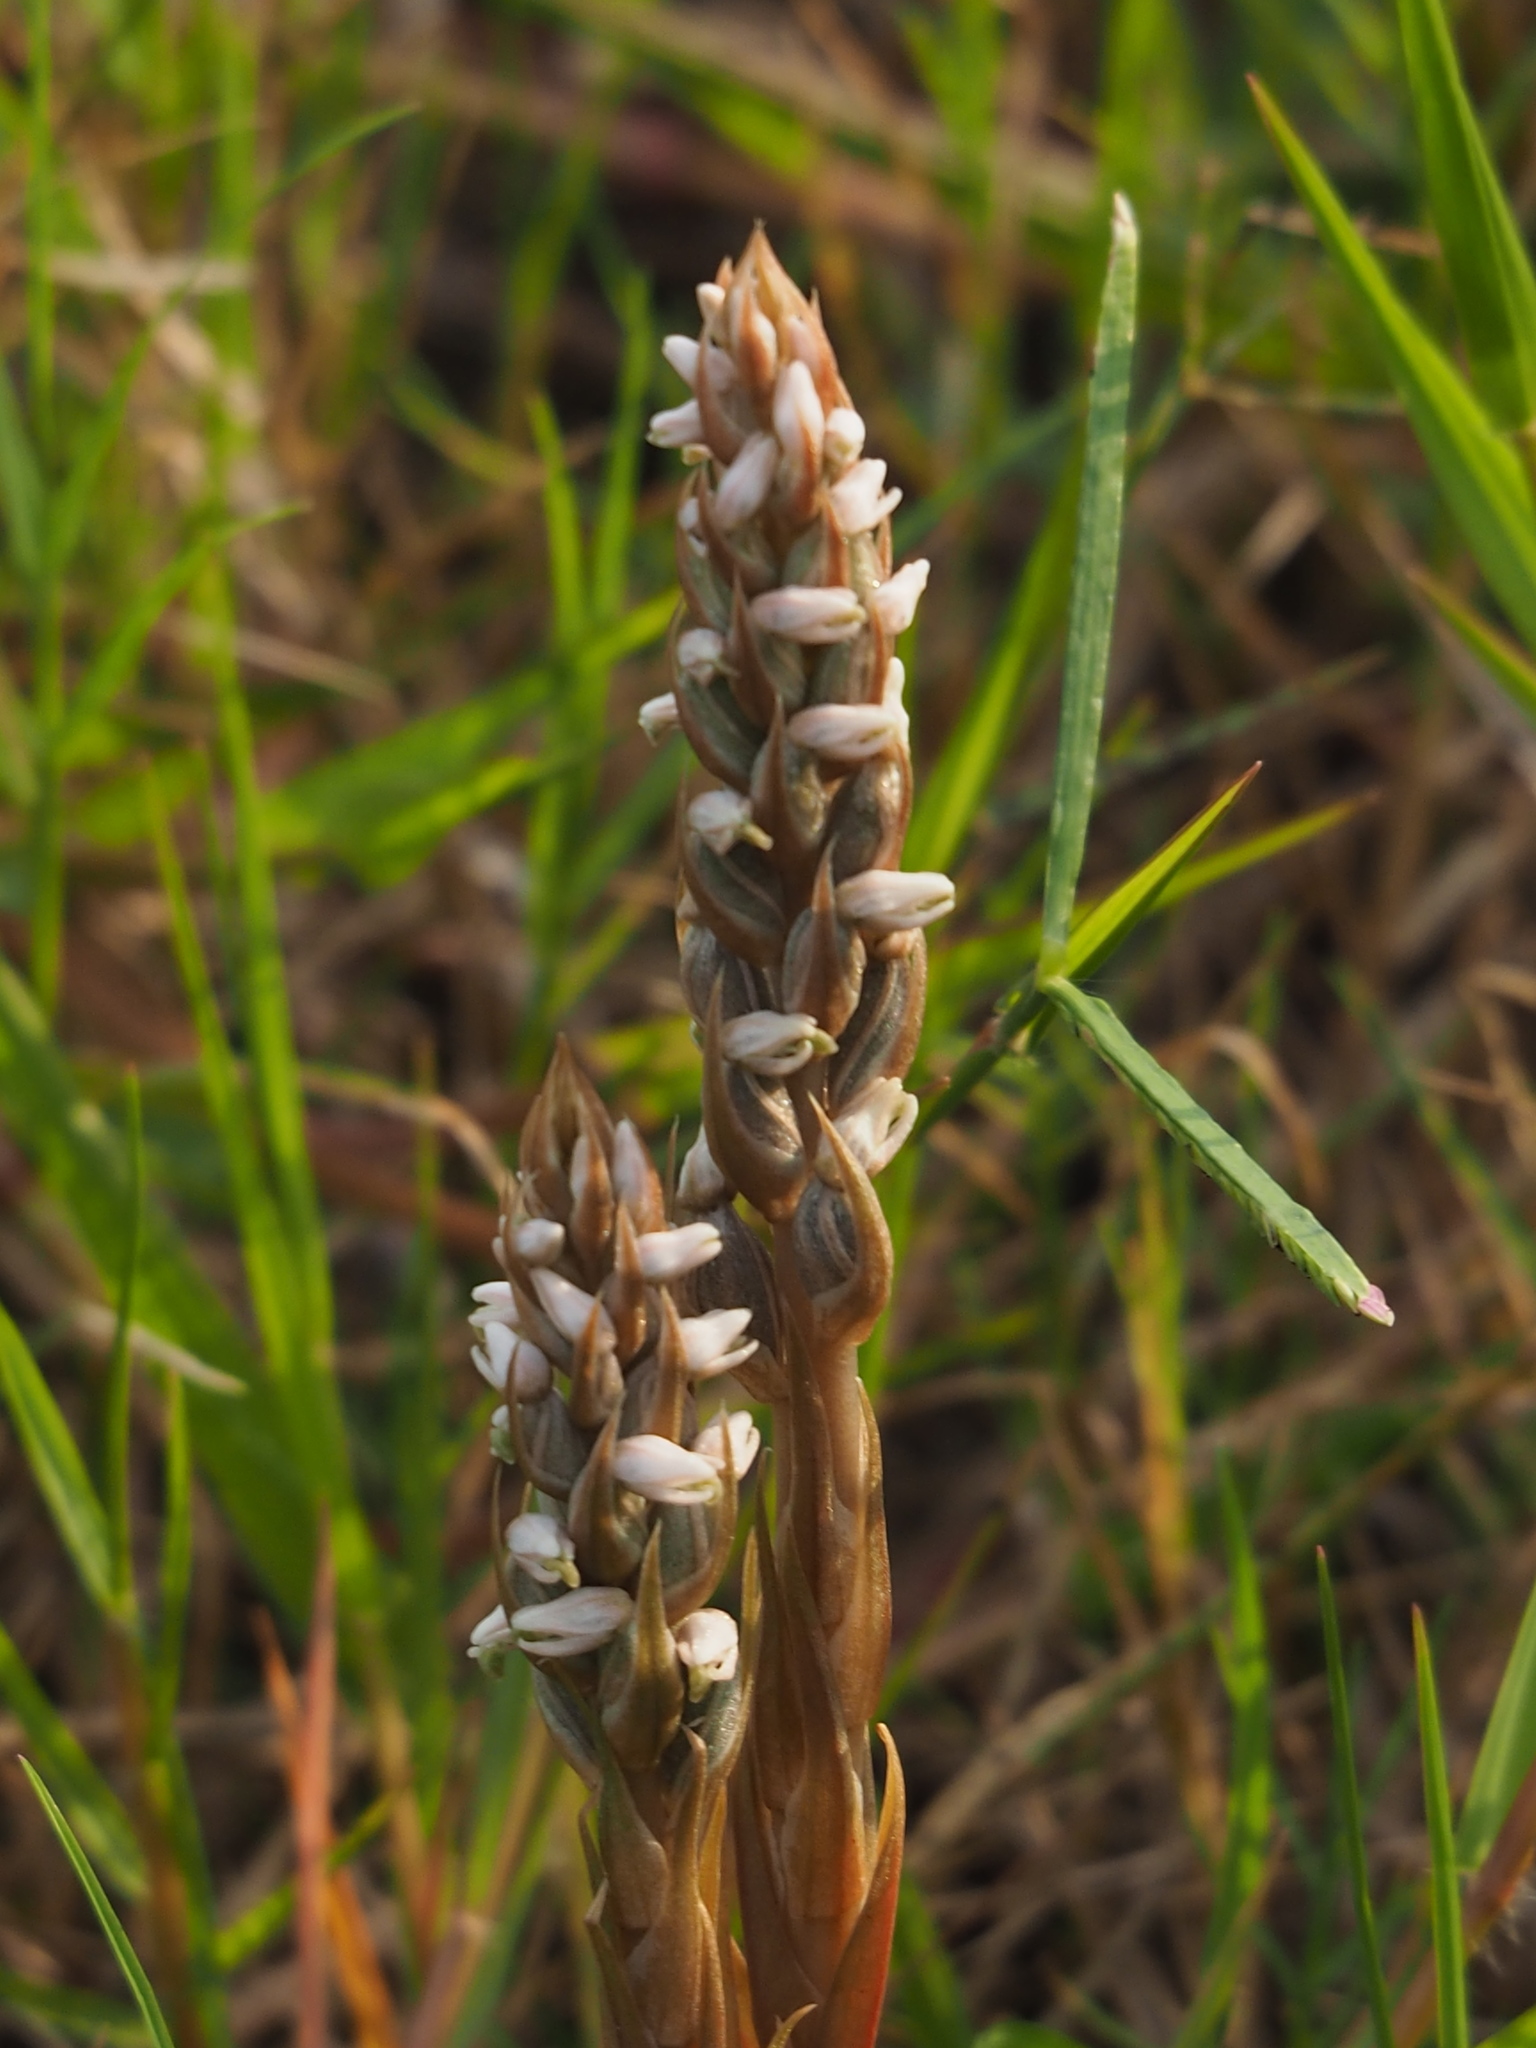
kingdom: Plantae
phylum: Tracheophyta
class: Liliopsida
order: Asparagales
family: Orchidaceae
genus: Zeuxine
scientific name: Zeuxine strateumatica
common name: Soldier's orchid
